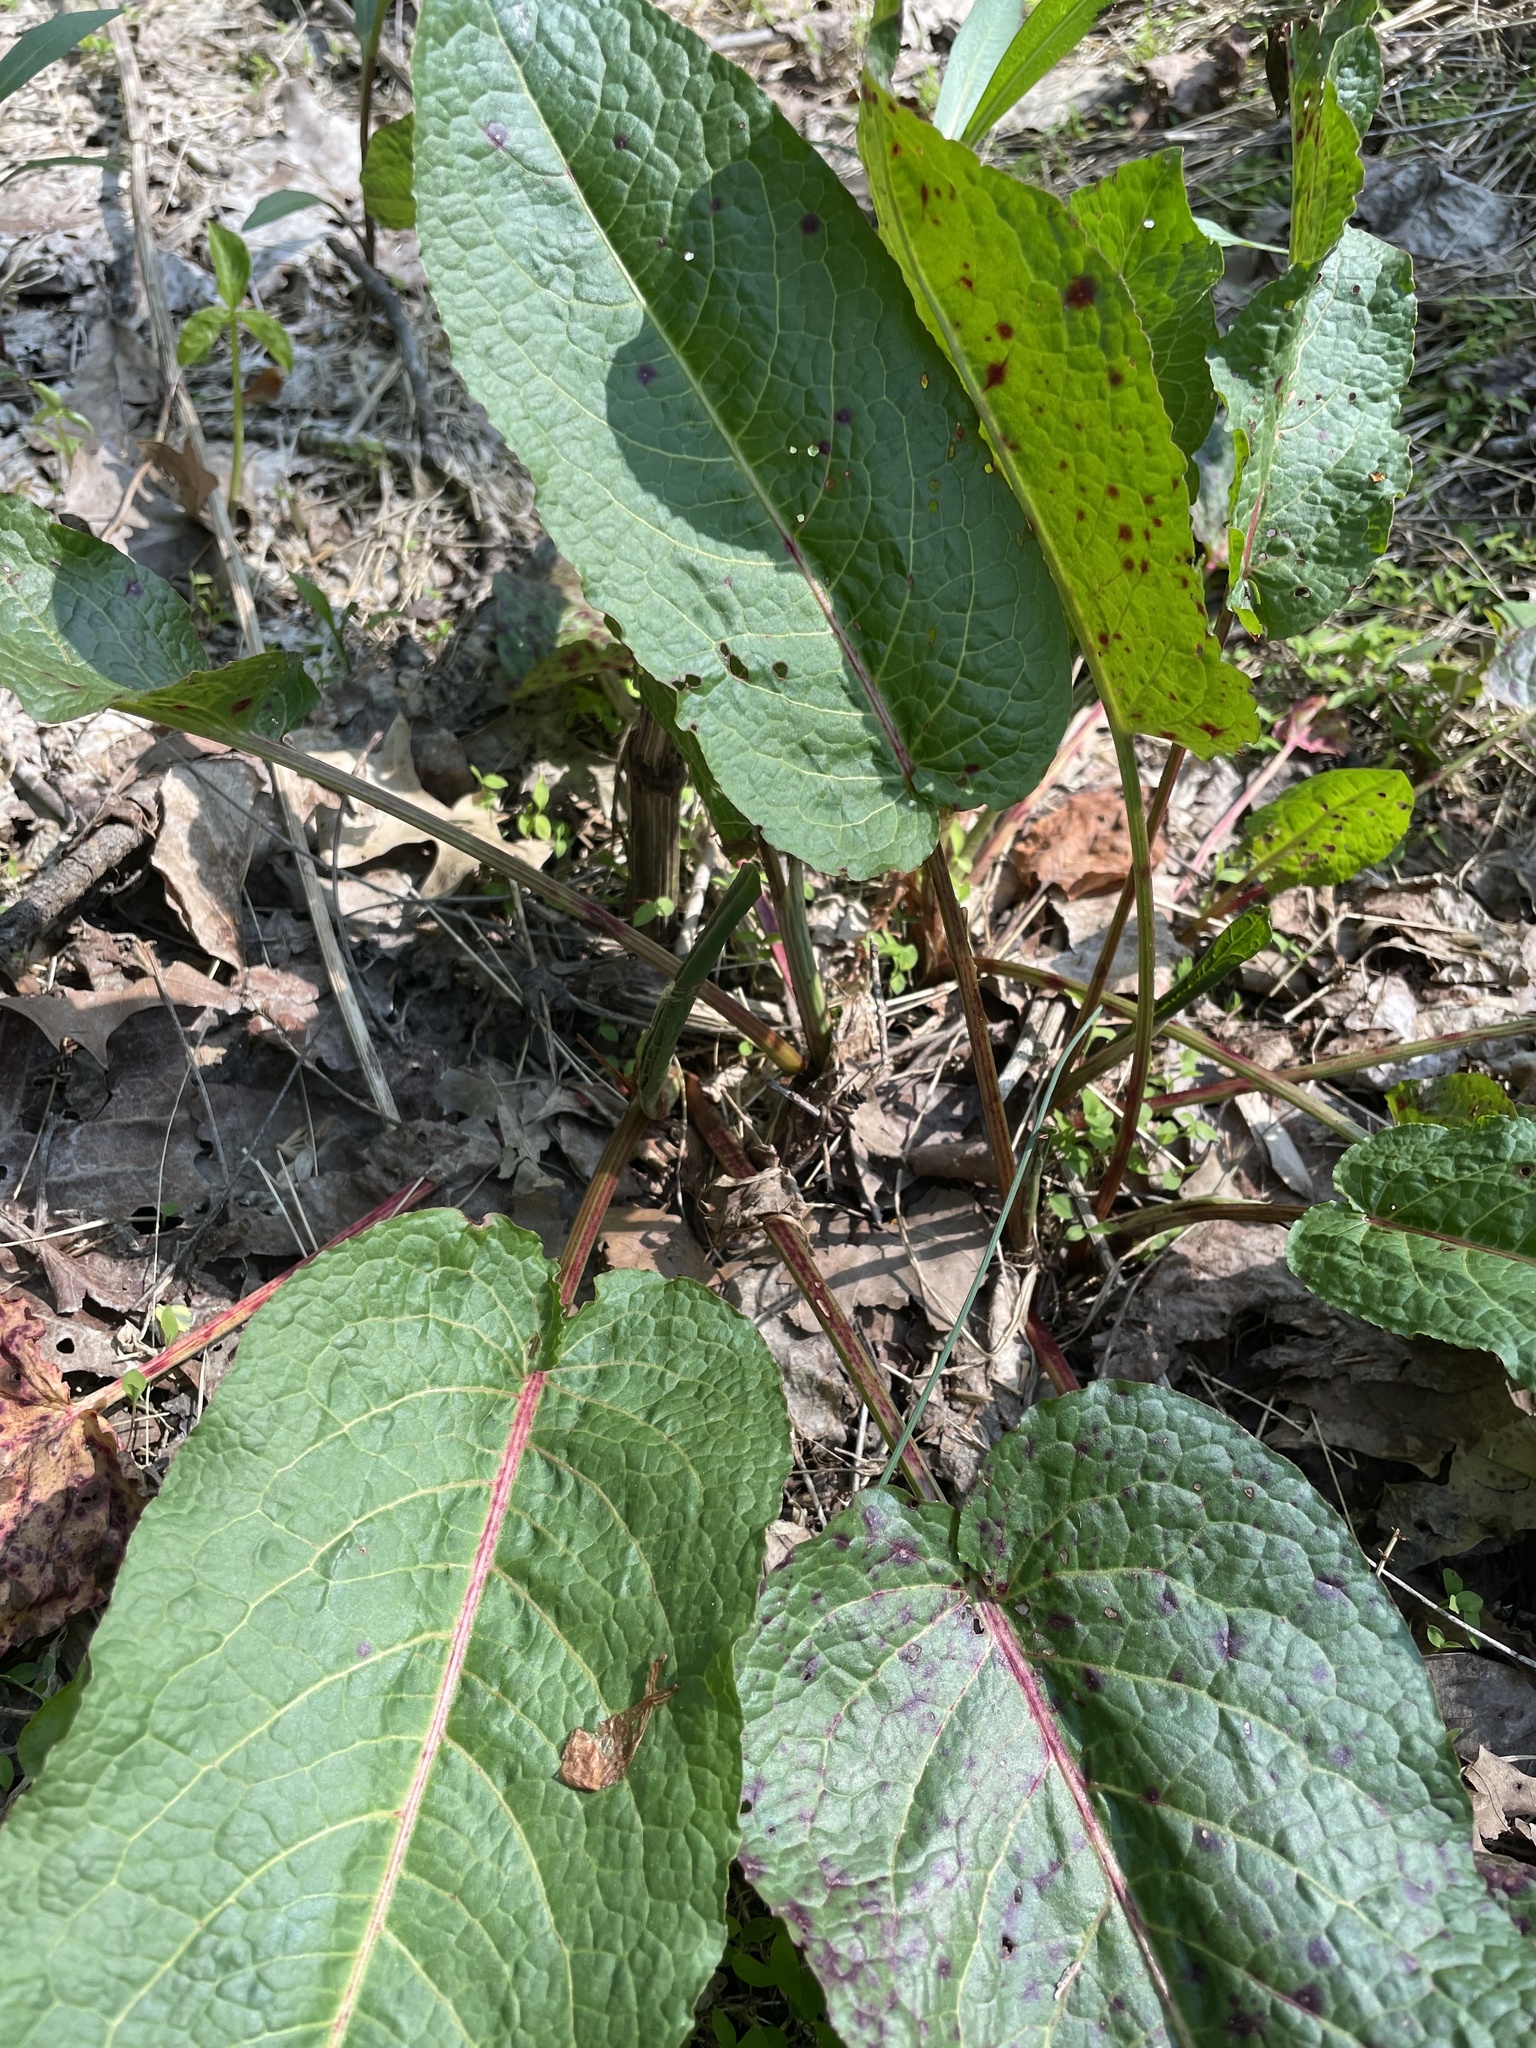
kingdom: Plantae
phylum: Tracheophyta
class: Magnoliopsida
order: Caryophyllales
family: Polygonaceae
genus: Rumex
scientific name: Rumex obtusifolius
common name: Bitter dock
